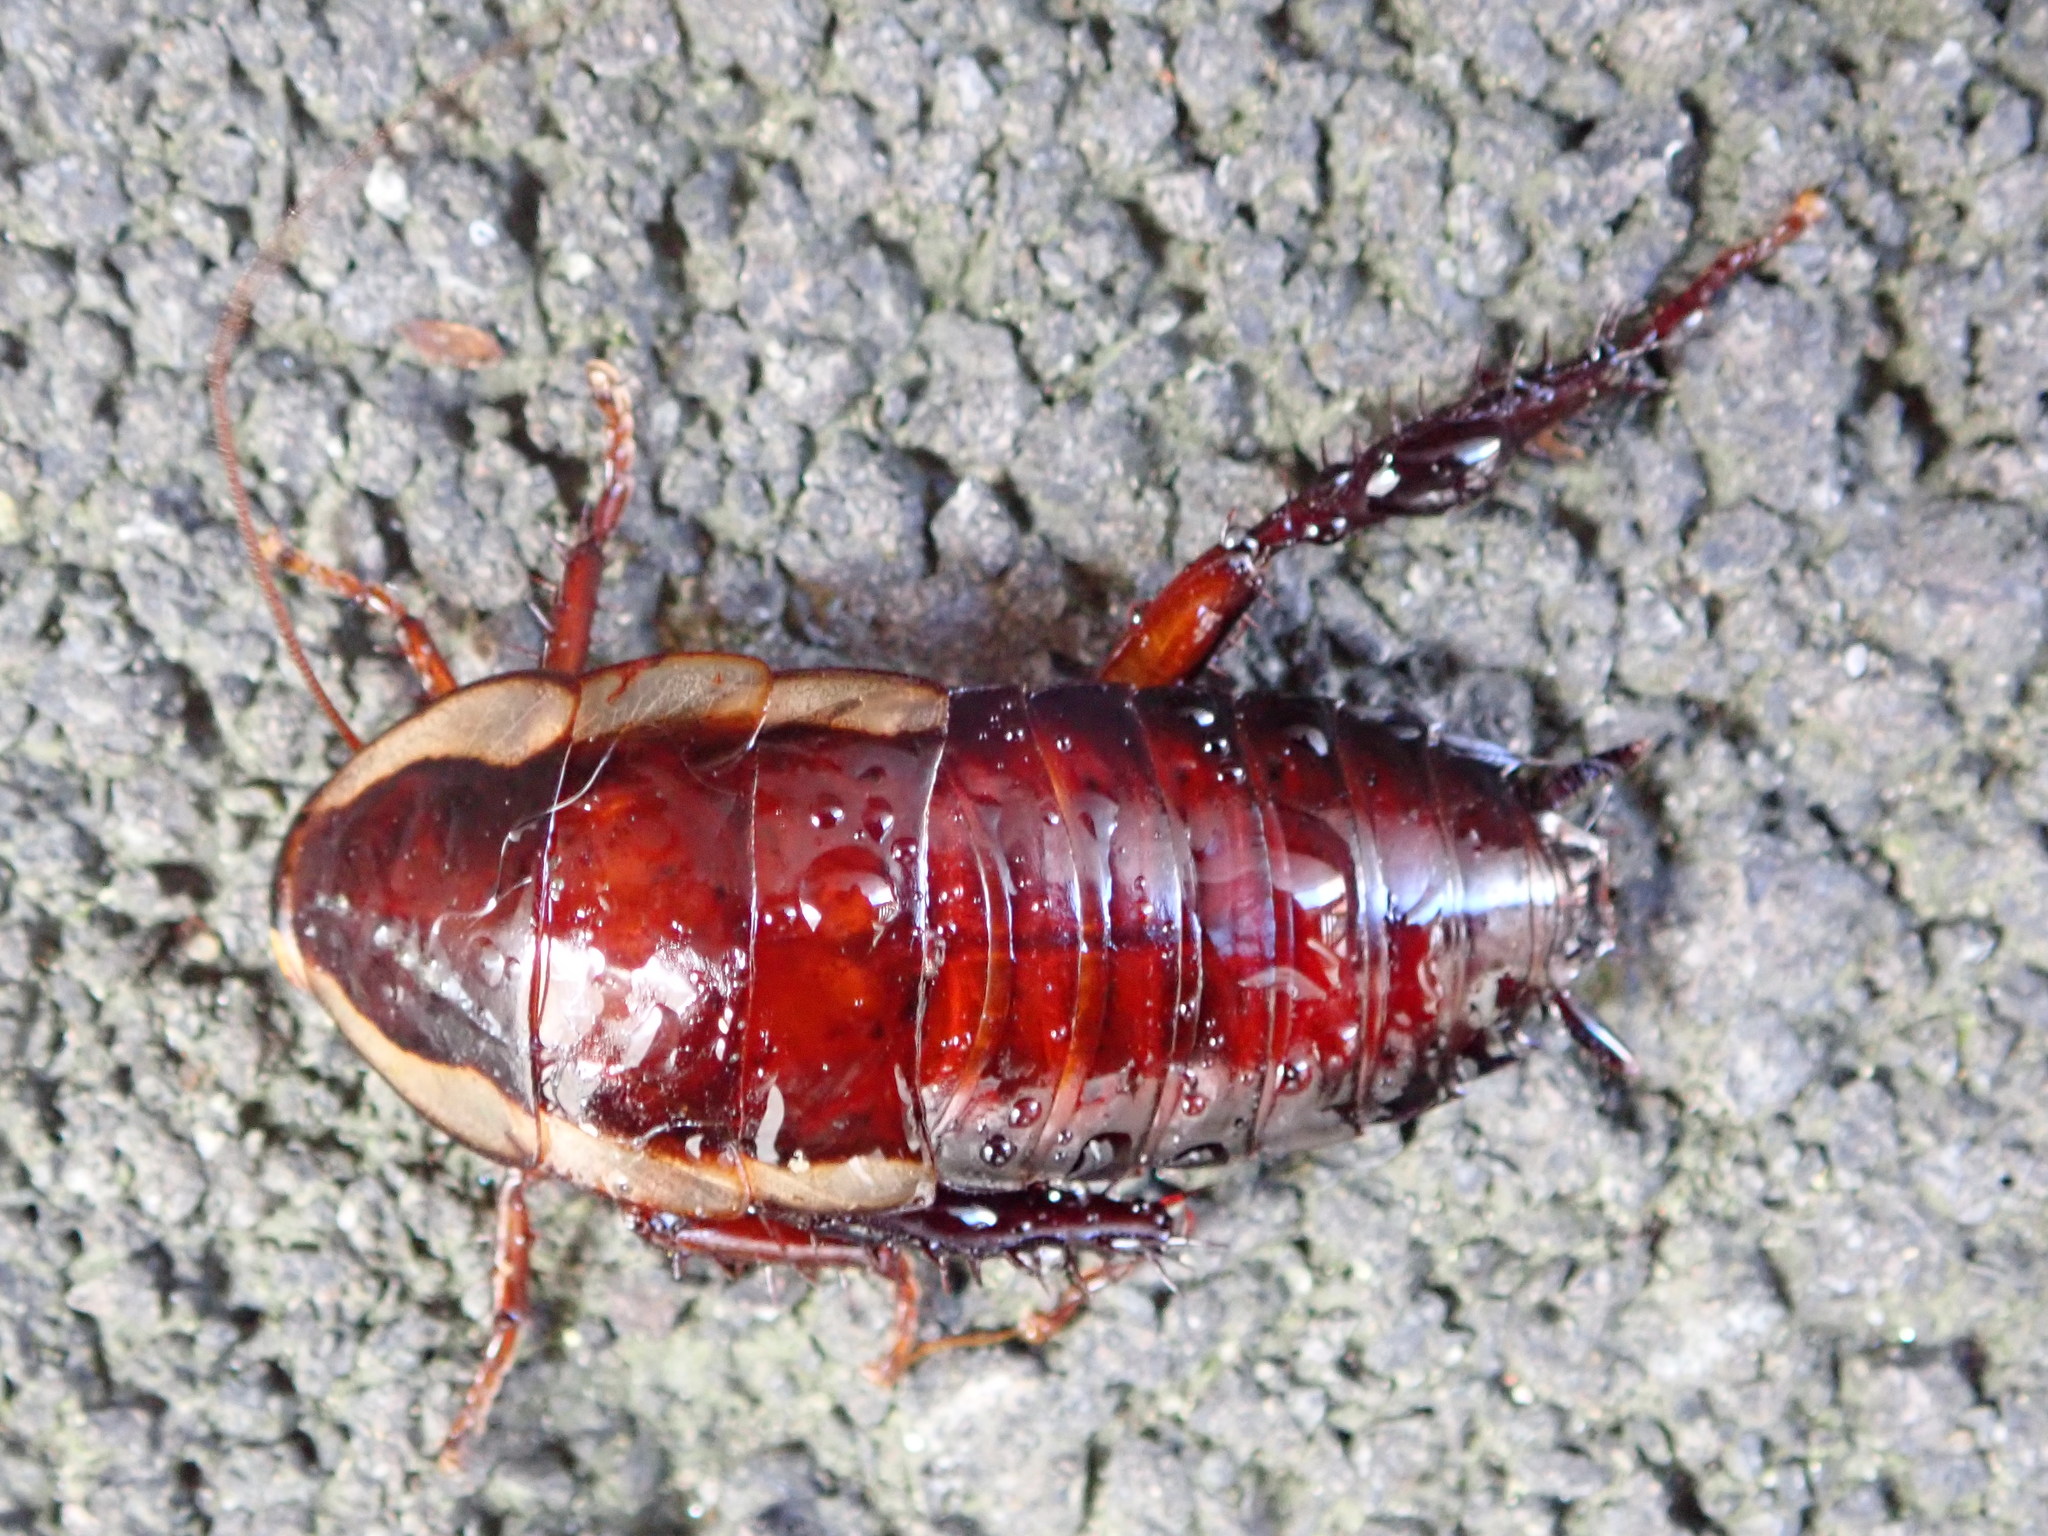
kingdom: Animalia
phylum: Arthropoda
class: Insecta
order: Blattodea
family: Blattidae
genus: Drymaplaneta
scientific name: Drymaplaneta semivitta
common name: Gisborne cockroach
